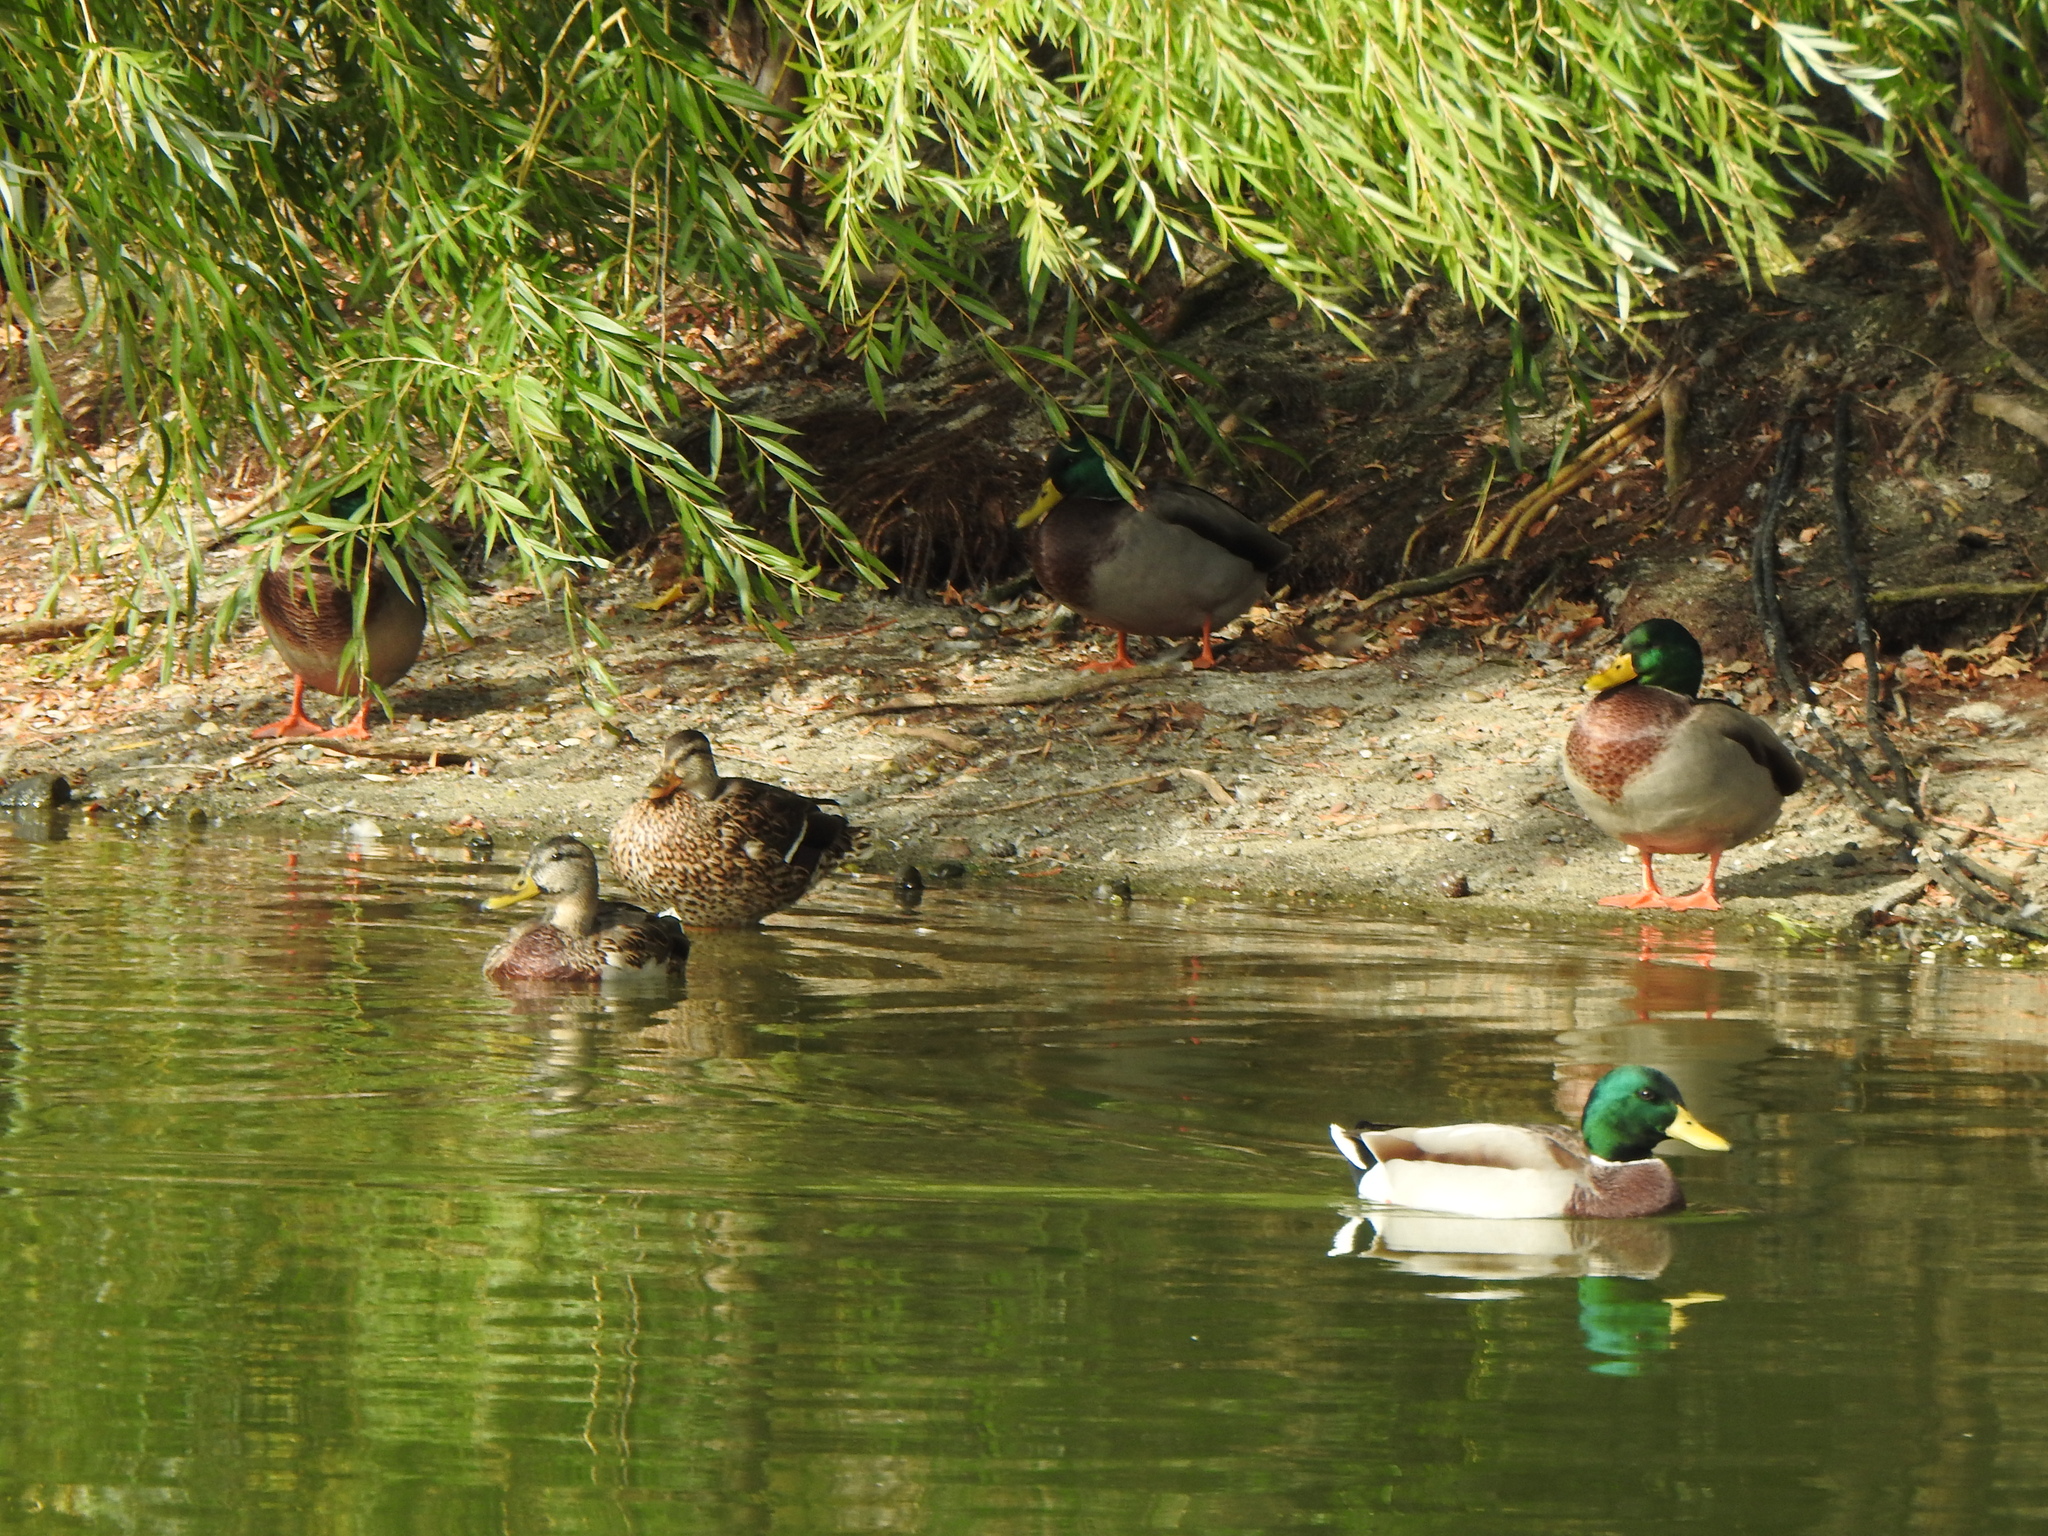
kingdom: Animalia
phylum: Chordata
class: Aves
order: Anseriformes
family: Anatidae
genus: Anas
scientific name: Anas platyrhynchos
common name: Mallard
